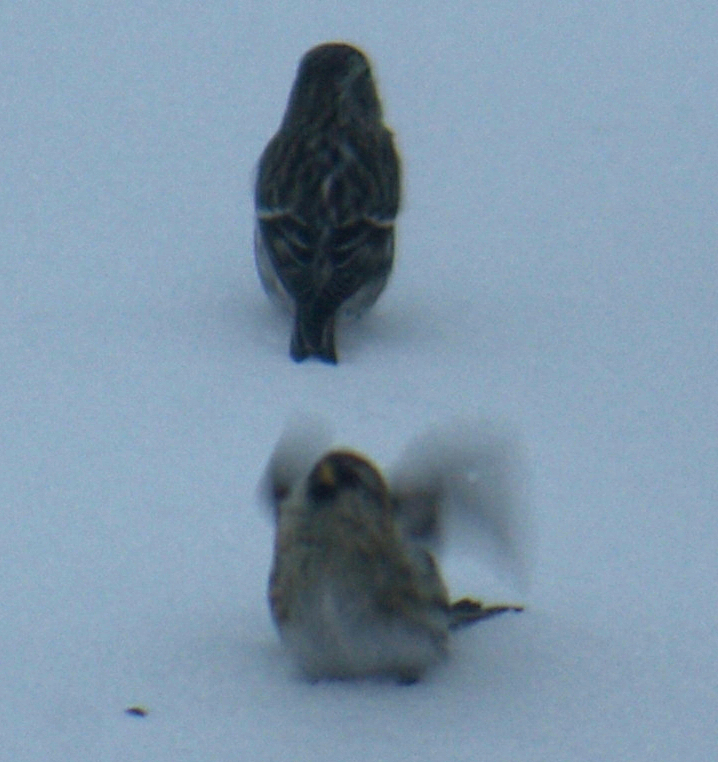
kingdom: Animalia
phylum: Chordata
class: Aves
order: Passeriformes
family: Fringillidae
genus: Acanthis
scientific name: Acanthis flammea
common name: Common redpoll
